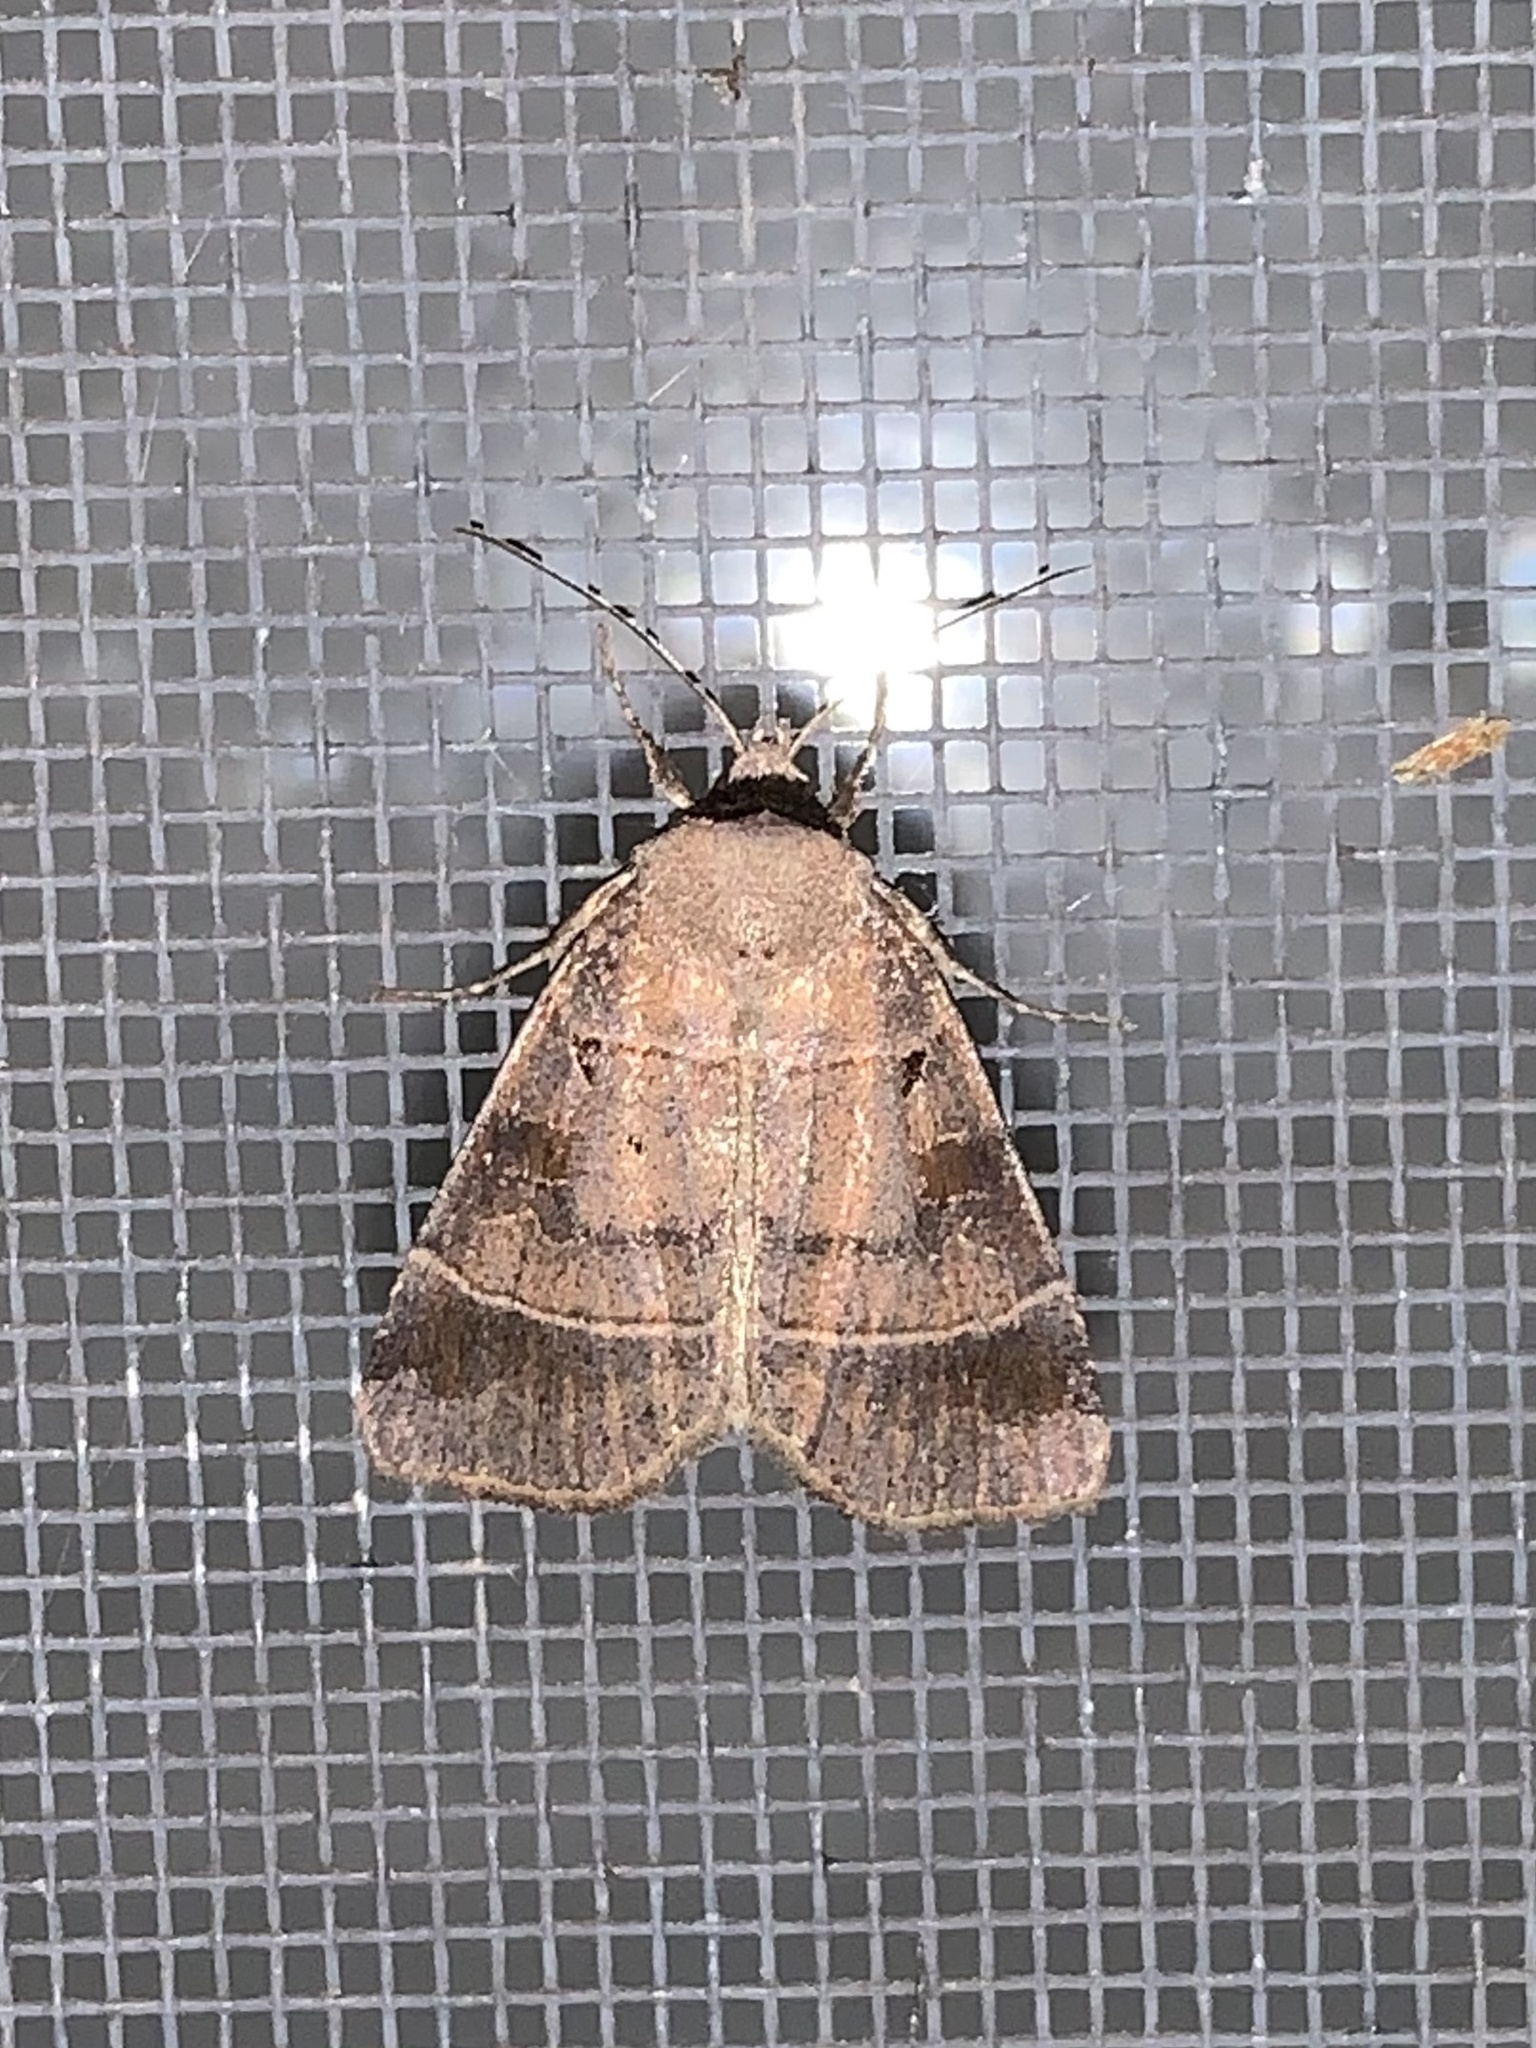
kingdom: Animalia
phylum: Arthropoda
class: Insecta
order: Lepidoptera
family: Noctuidae
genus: Agnorisma
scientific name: Agnorisma badinodis
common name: Pale-banded dart
